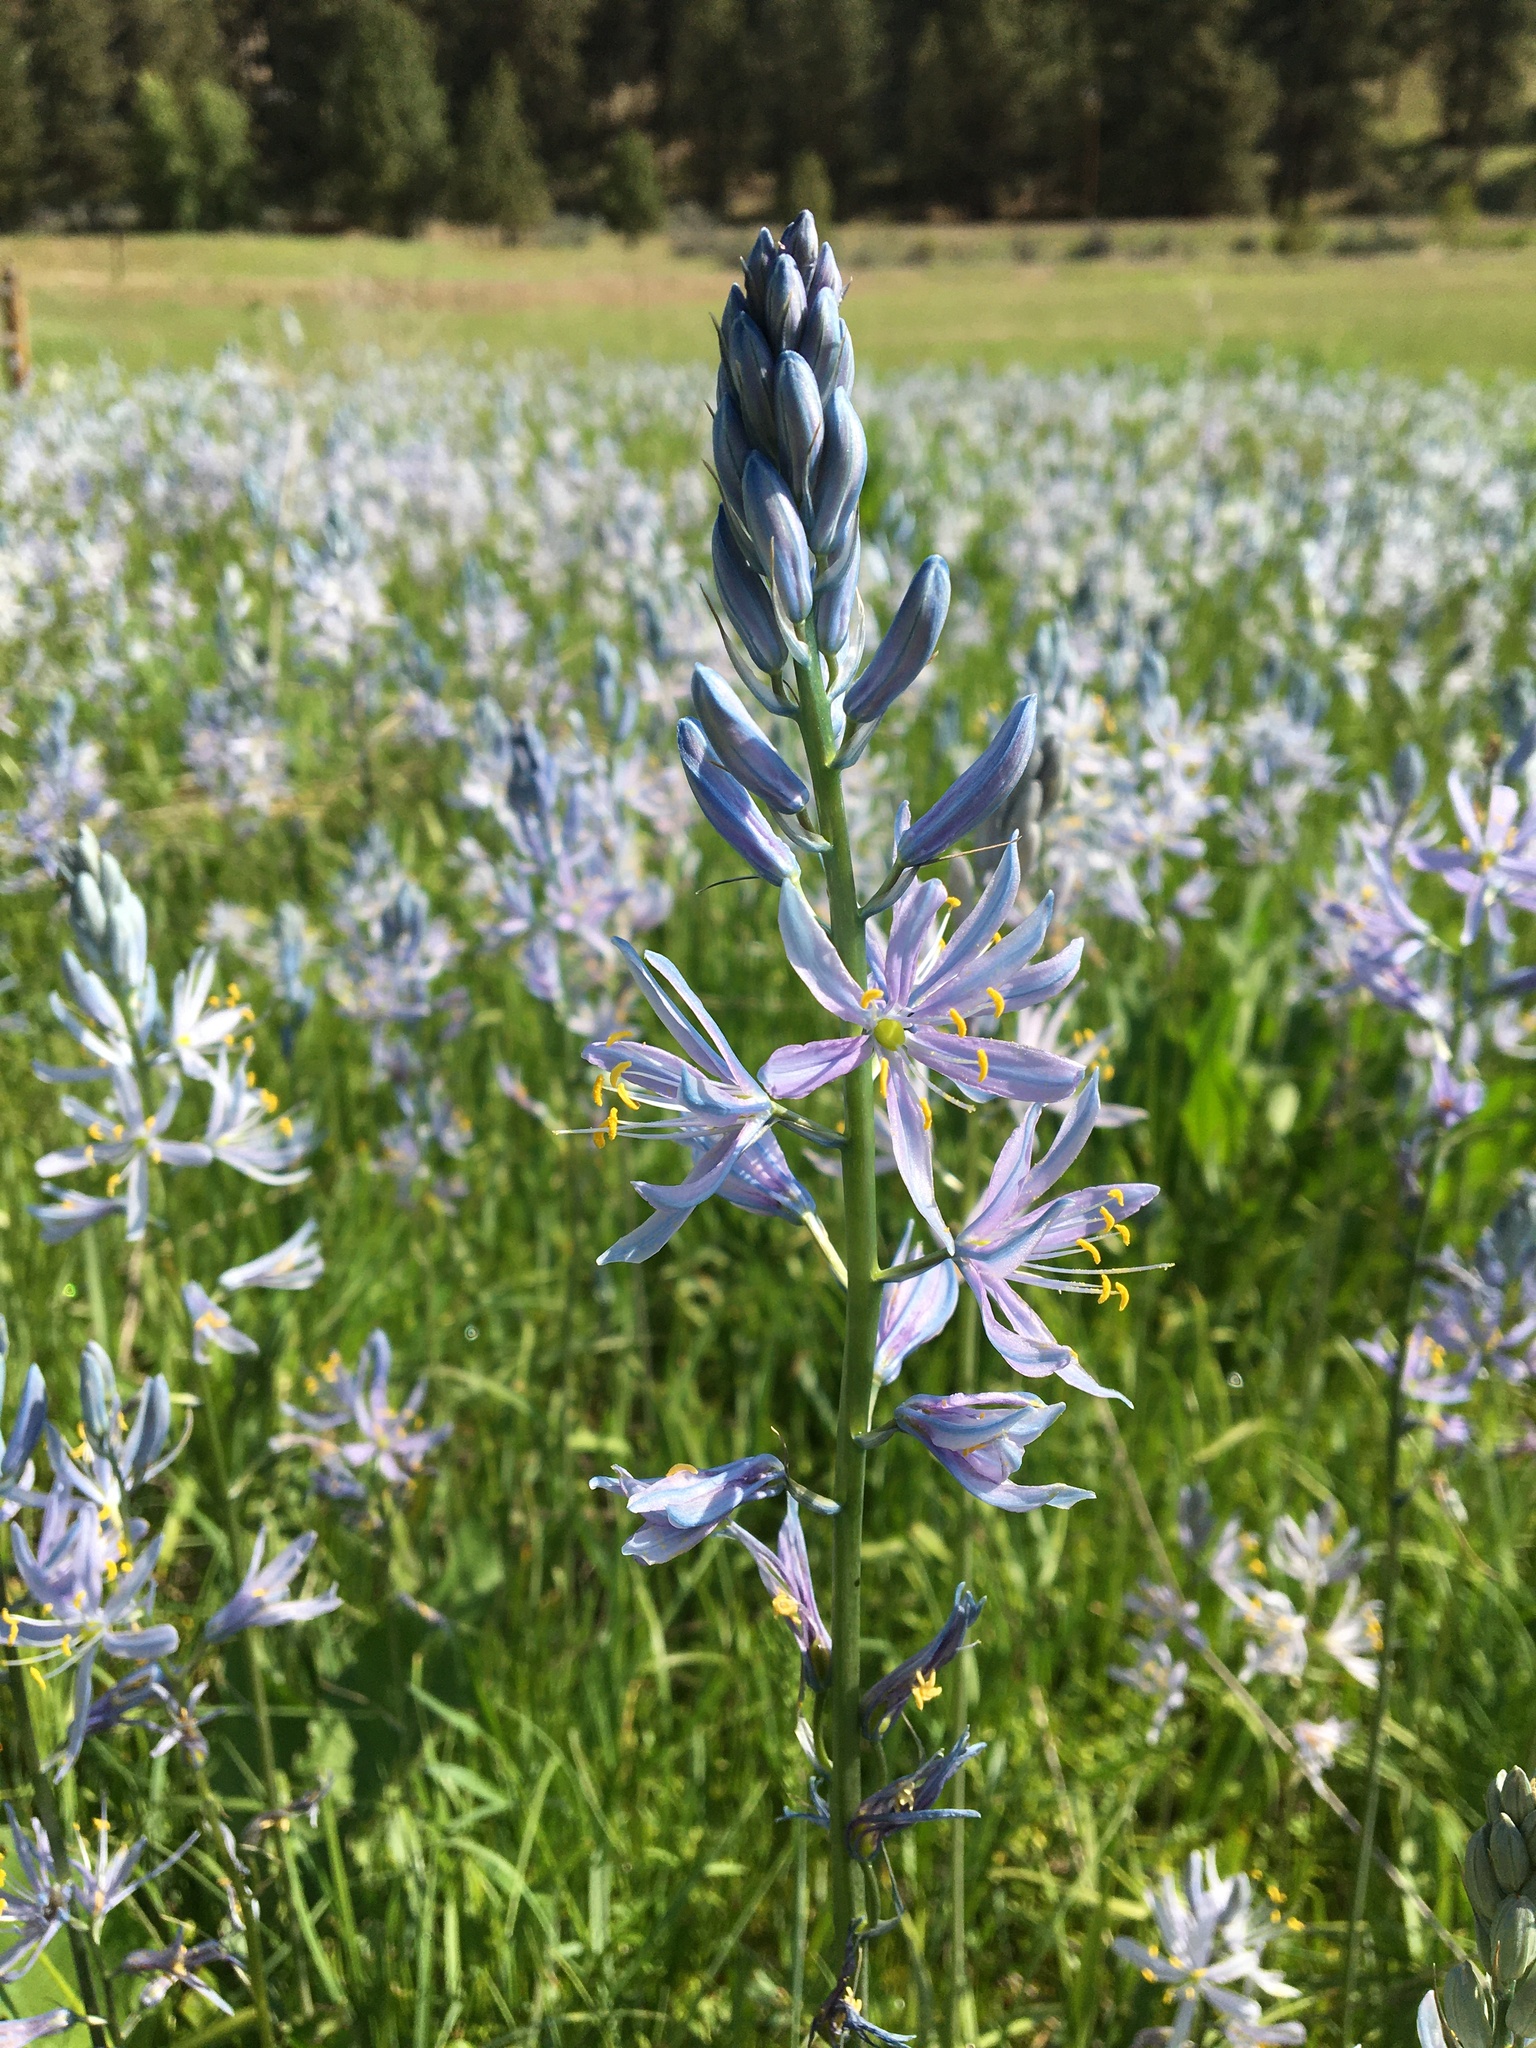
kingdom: Plantae
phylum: Tracheophyta
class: Liliopsida
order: Asparagales
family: Asparagaceae
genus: Camassia
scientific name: Camassia quamash
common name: Common camas
